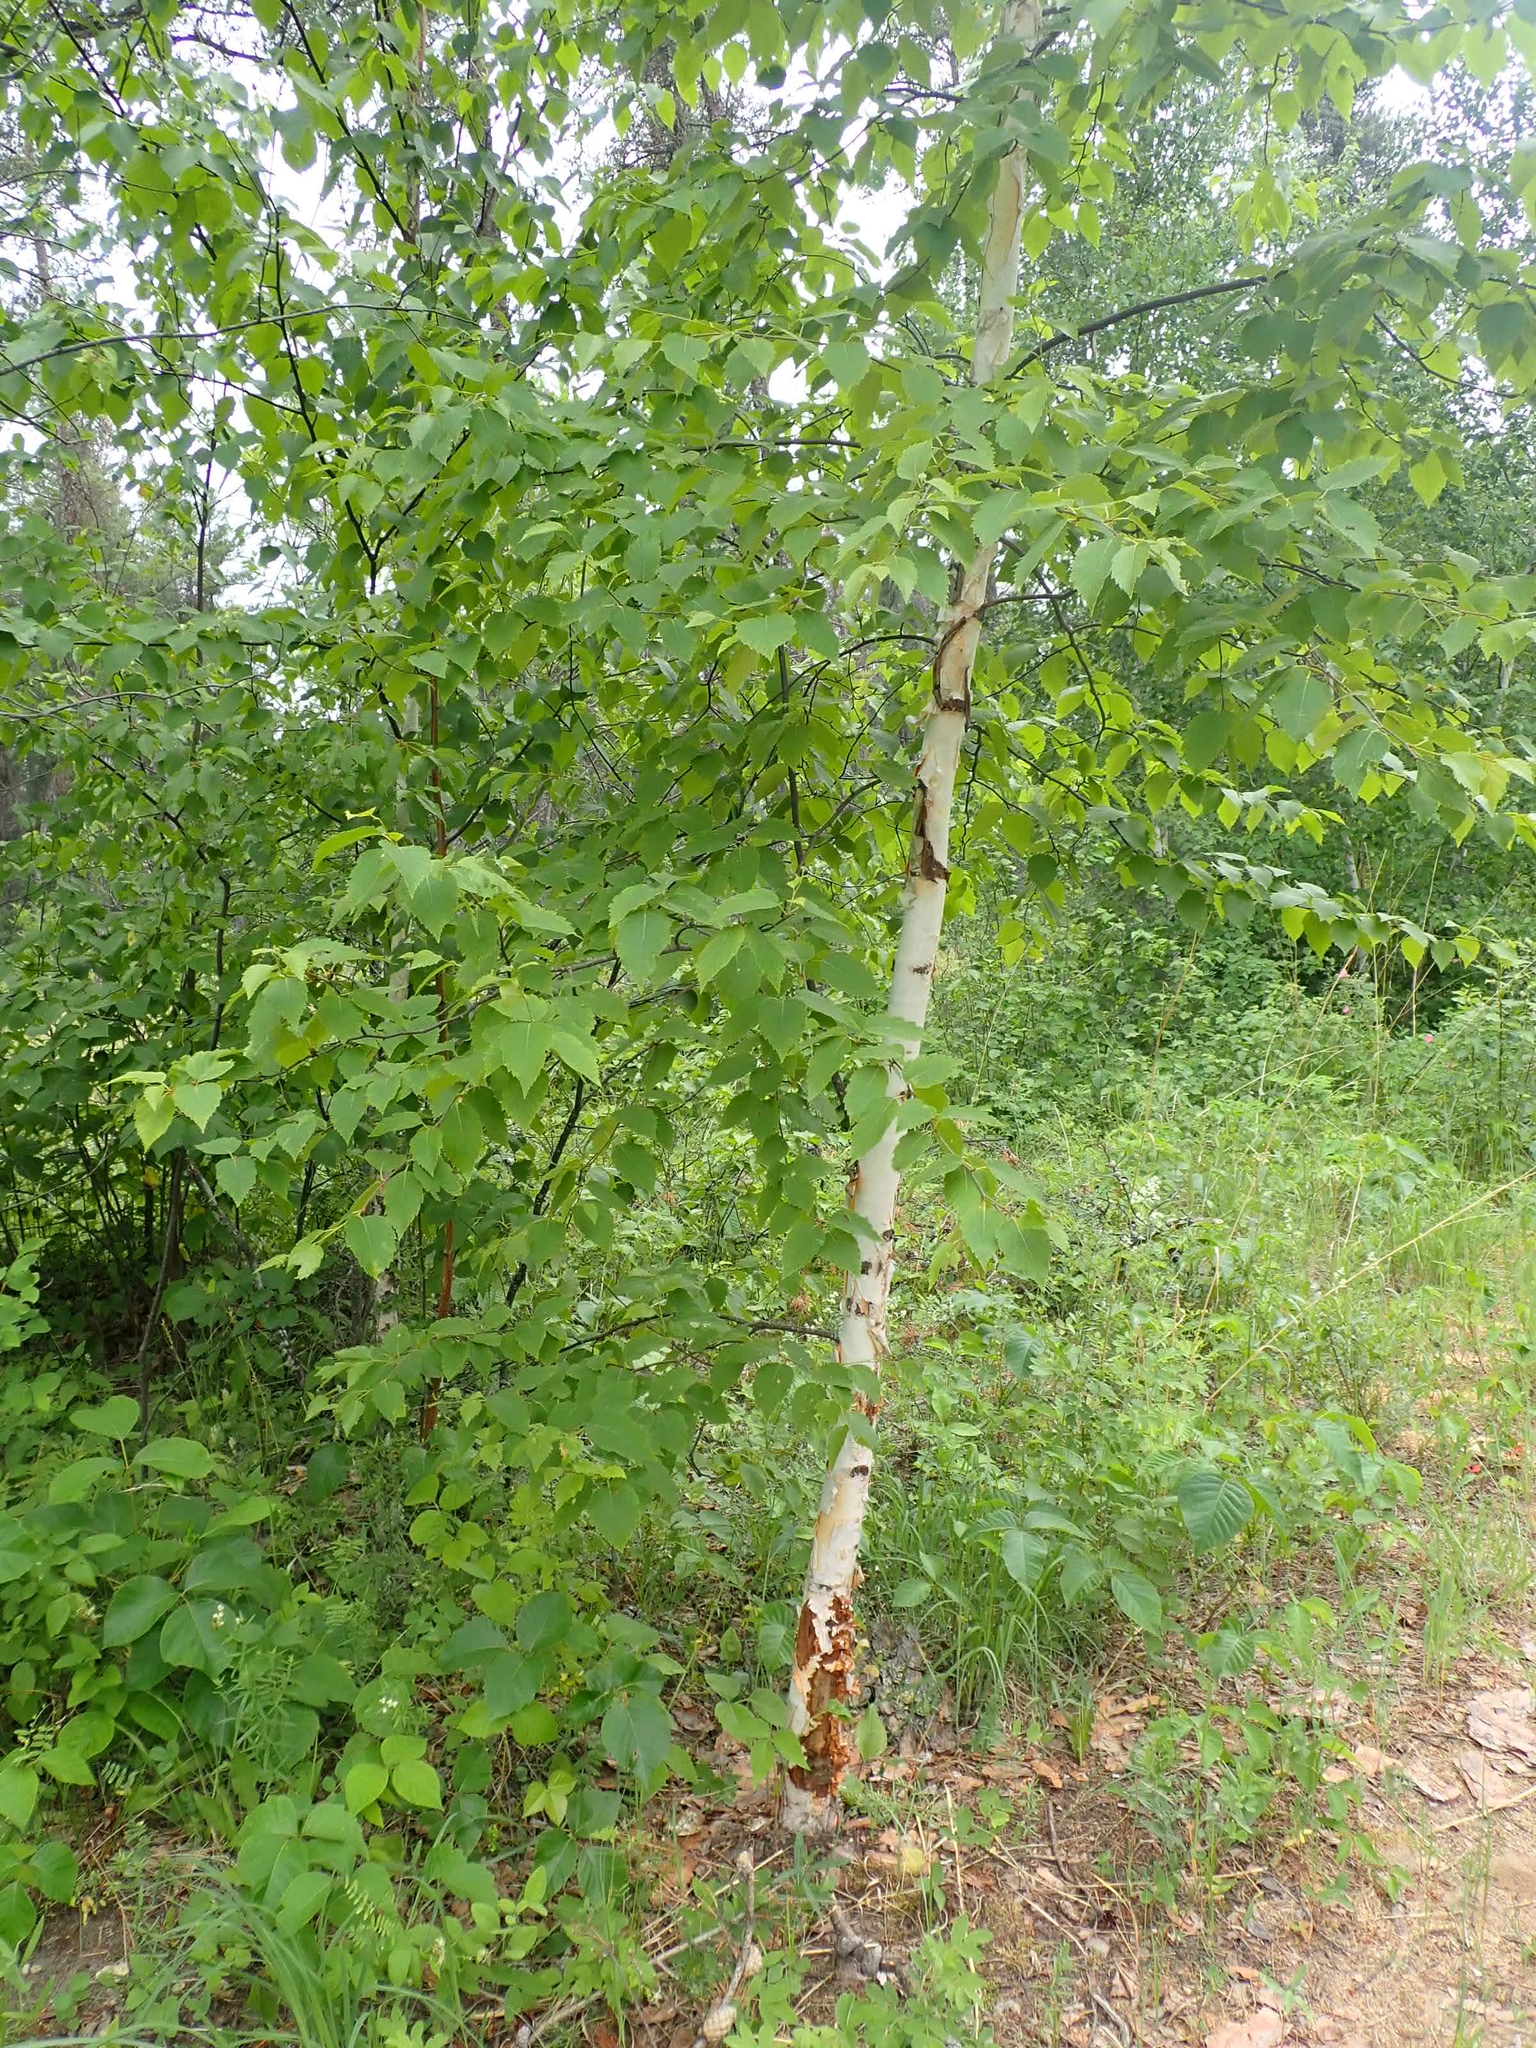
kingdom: Plantae
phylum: Tracheophyta
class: Magnoliopsida
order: Fagales
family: Betulaceae
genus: Betula
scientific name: Betula papyrifera
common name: Paper birch
